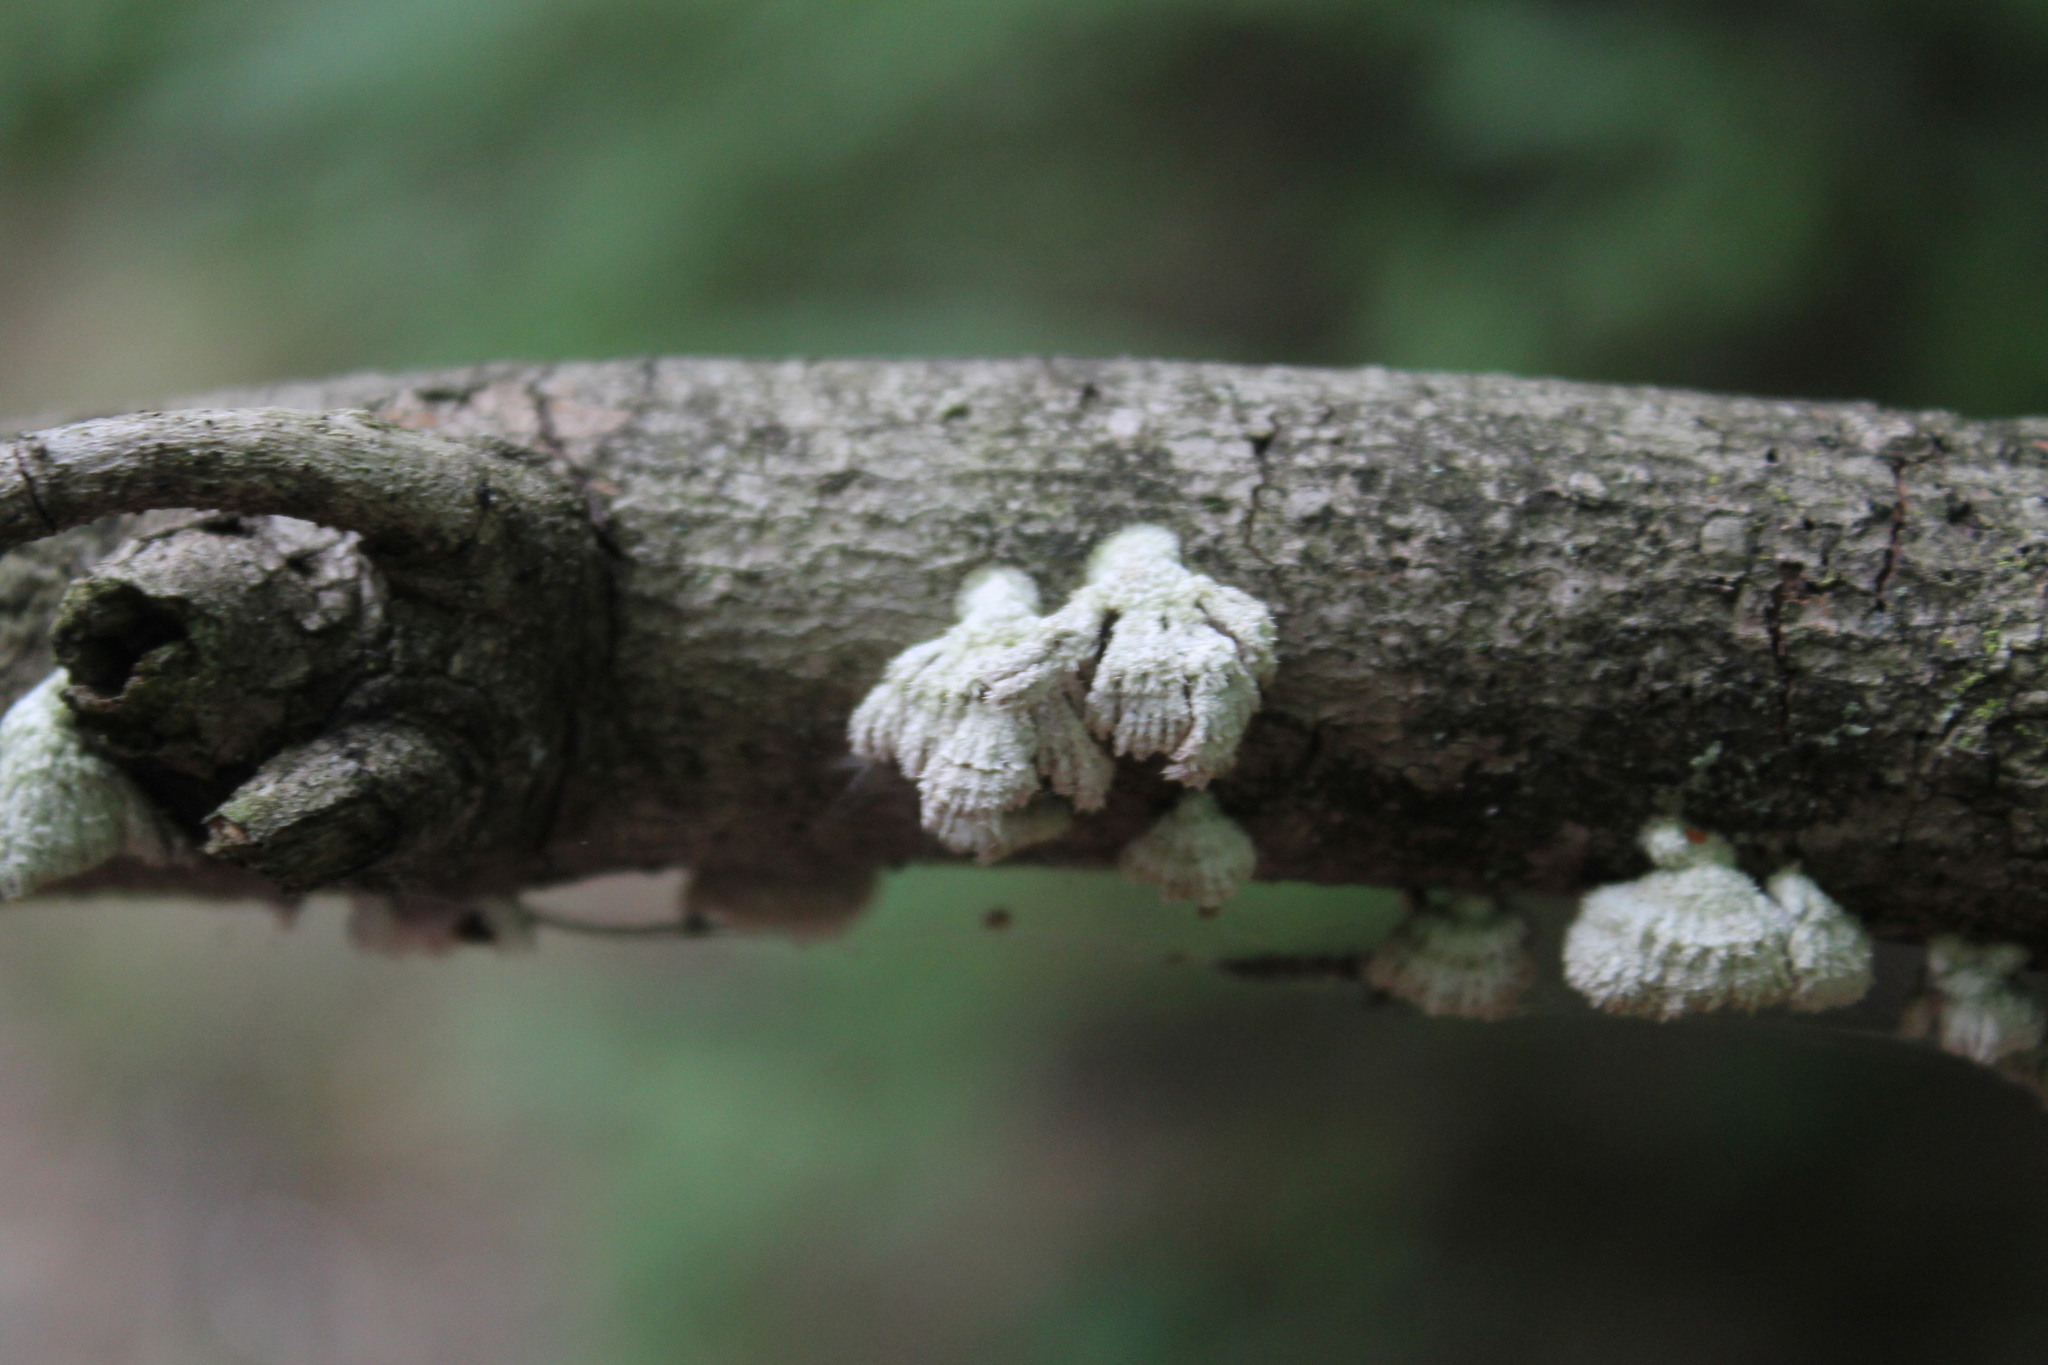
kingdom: Fungi
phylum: Basidiomycota
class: Agaricomycetes
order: Agaricales
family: Schizophyllaceae
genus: Schizophyllum
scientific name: Schizophyllum commune
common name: Common porecrust
